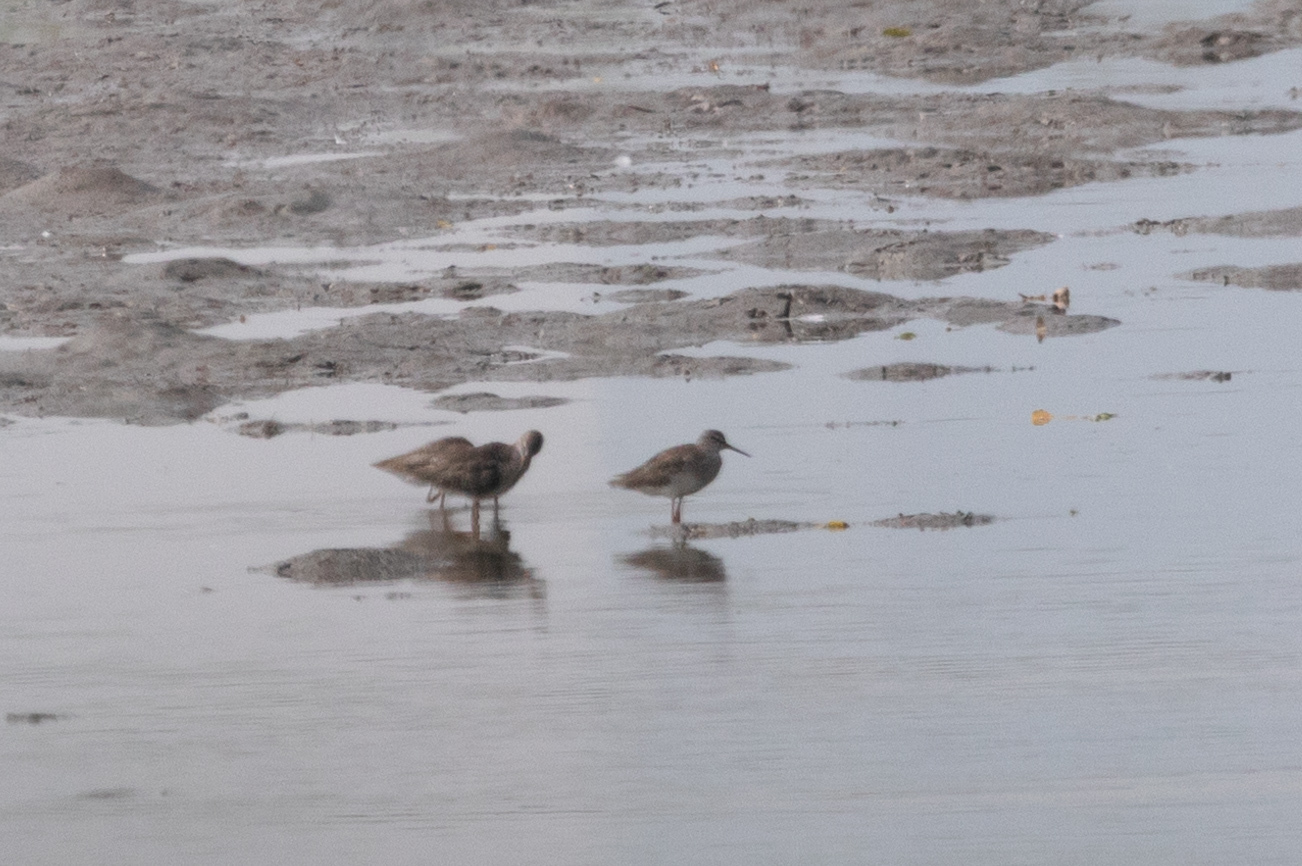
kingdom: Animalia
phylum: Chordata
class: Aves
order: Charadriiformes
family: Scolopacidae
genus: Tringa
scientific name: Tringa totanus
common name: Common redshank
